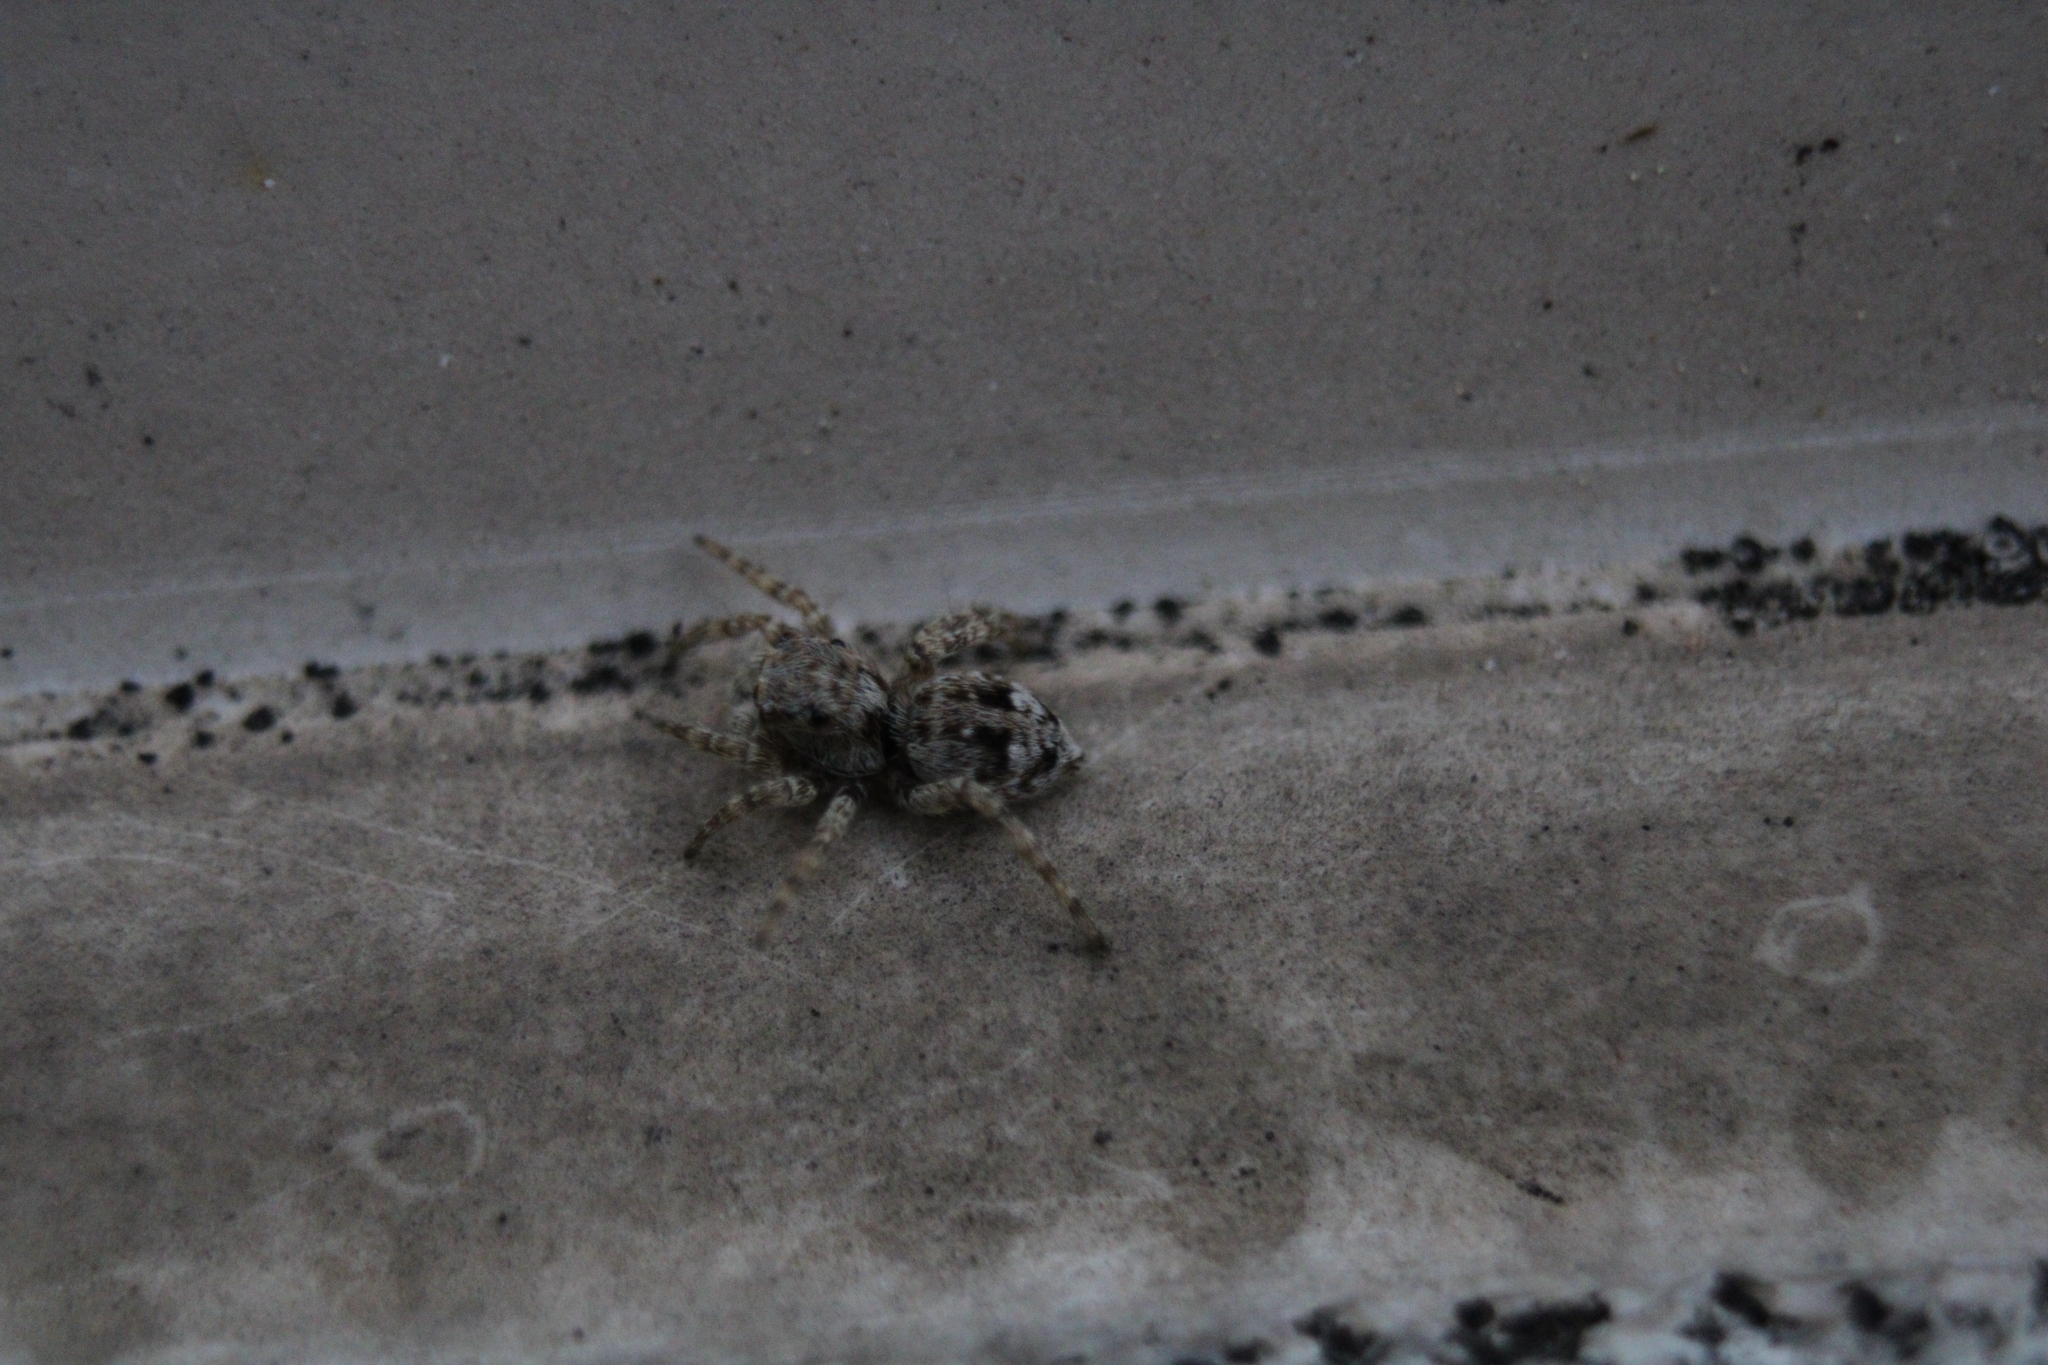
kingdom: Animalia
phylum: Arthropoda
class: Arachnida
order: Araneae
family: Salticidae
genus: Attulus
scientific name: Attulus fasciger
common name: Asiatic wall jumping spider
